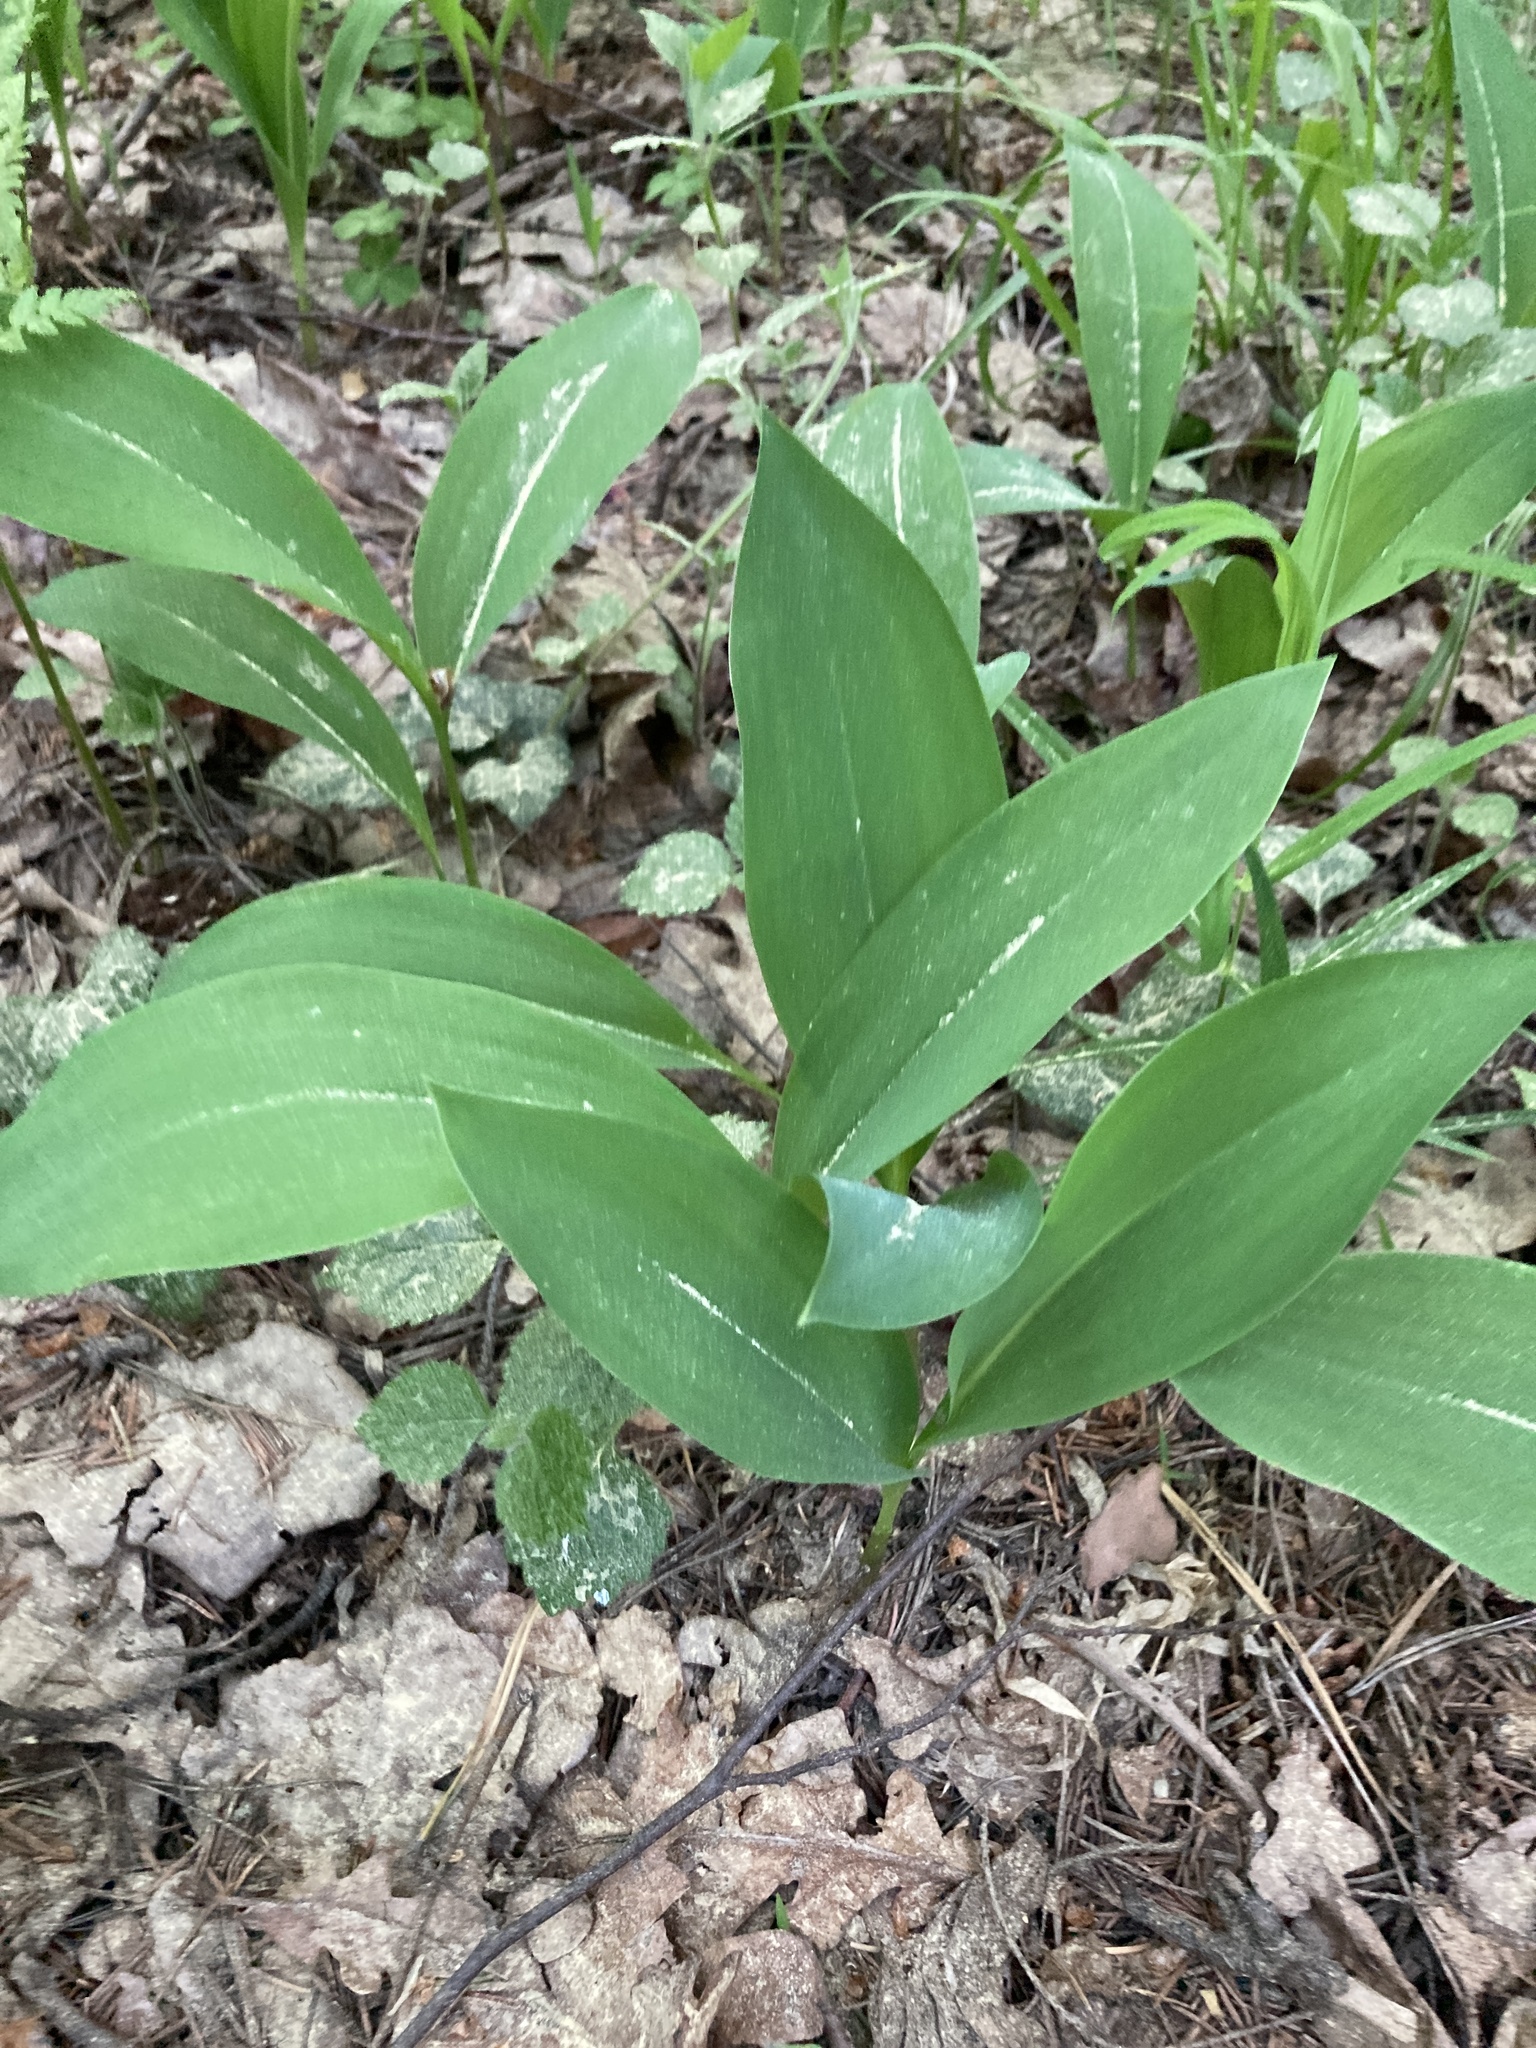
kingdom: Plantae
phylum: Tracheophyta
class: Liliopsida
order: Asparagales
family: Asparagaceae
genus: Convallaria
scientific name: Convallaria majalis
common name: Lily-of-the-valley
